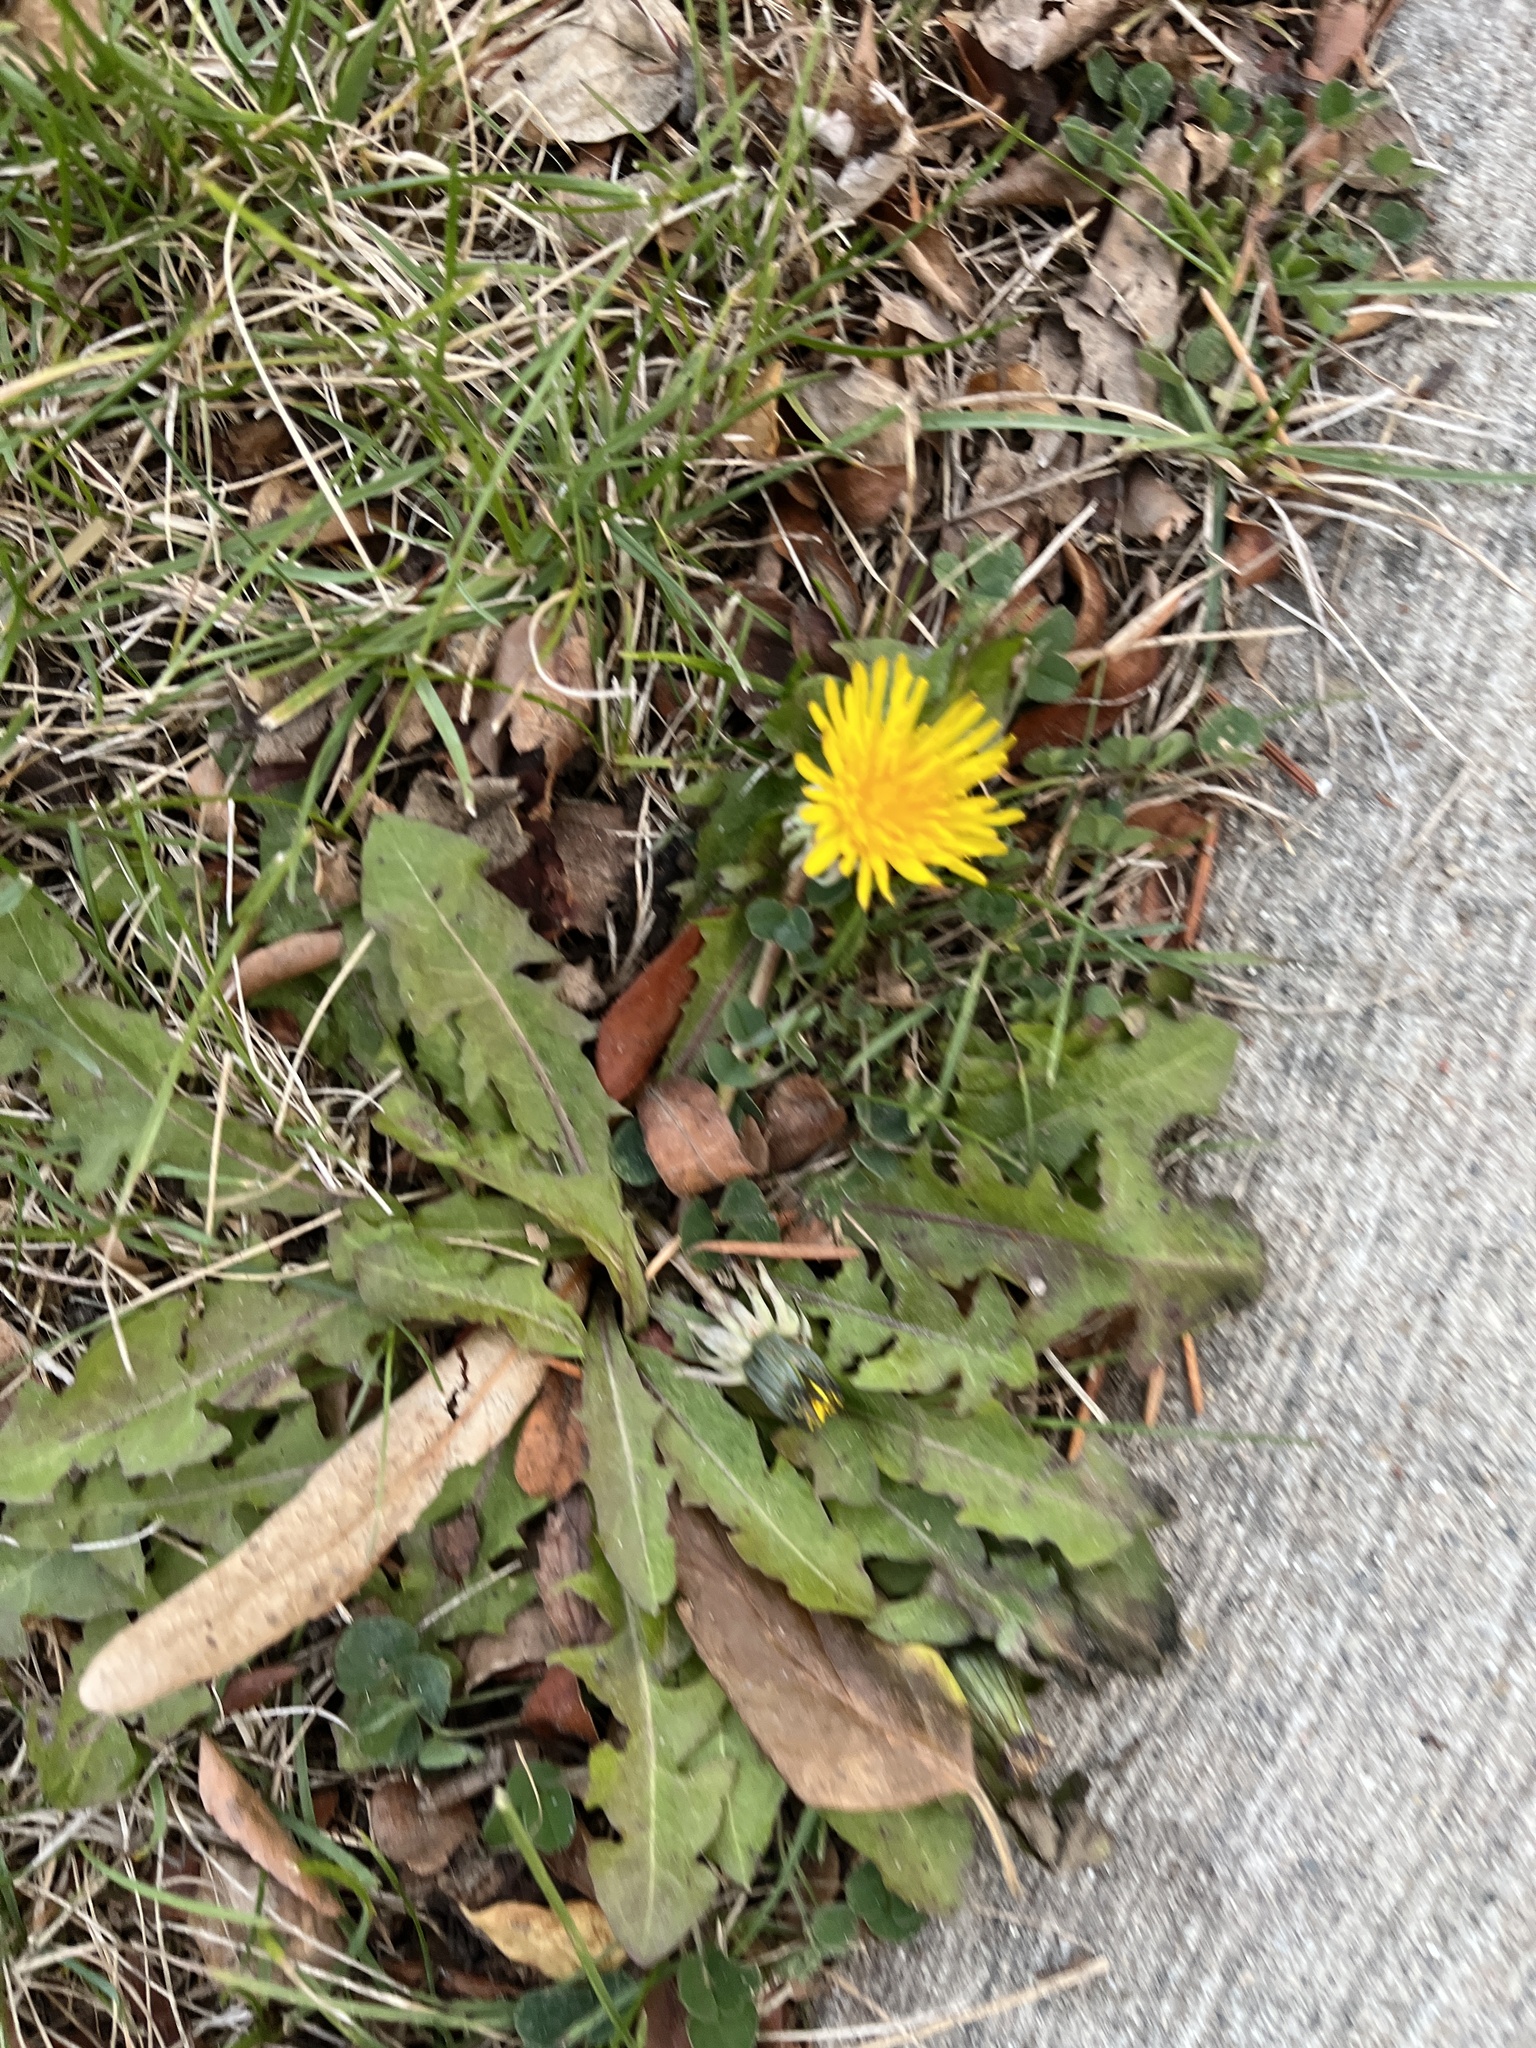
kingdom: Plantae
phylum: Tracheophyta
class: Magnoliopsida
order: Asterales
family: Asteraceae
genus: Taraxacum
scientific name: Taraxacum
